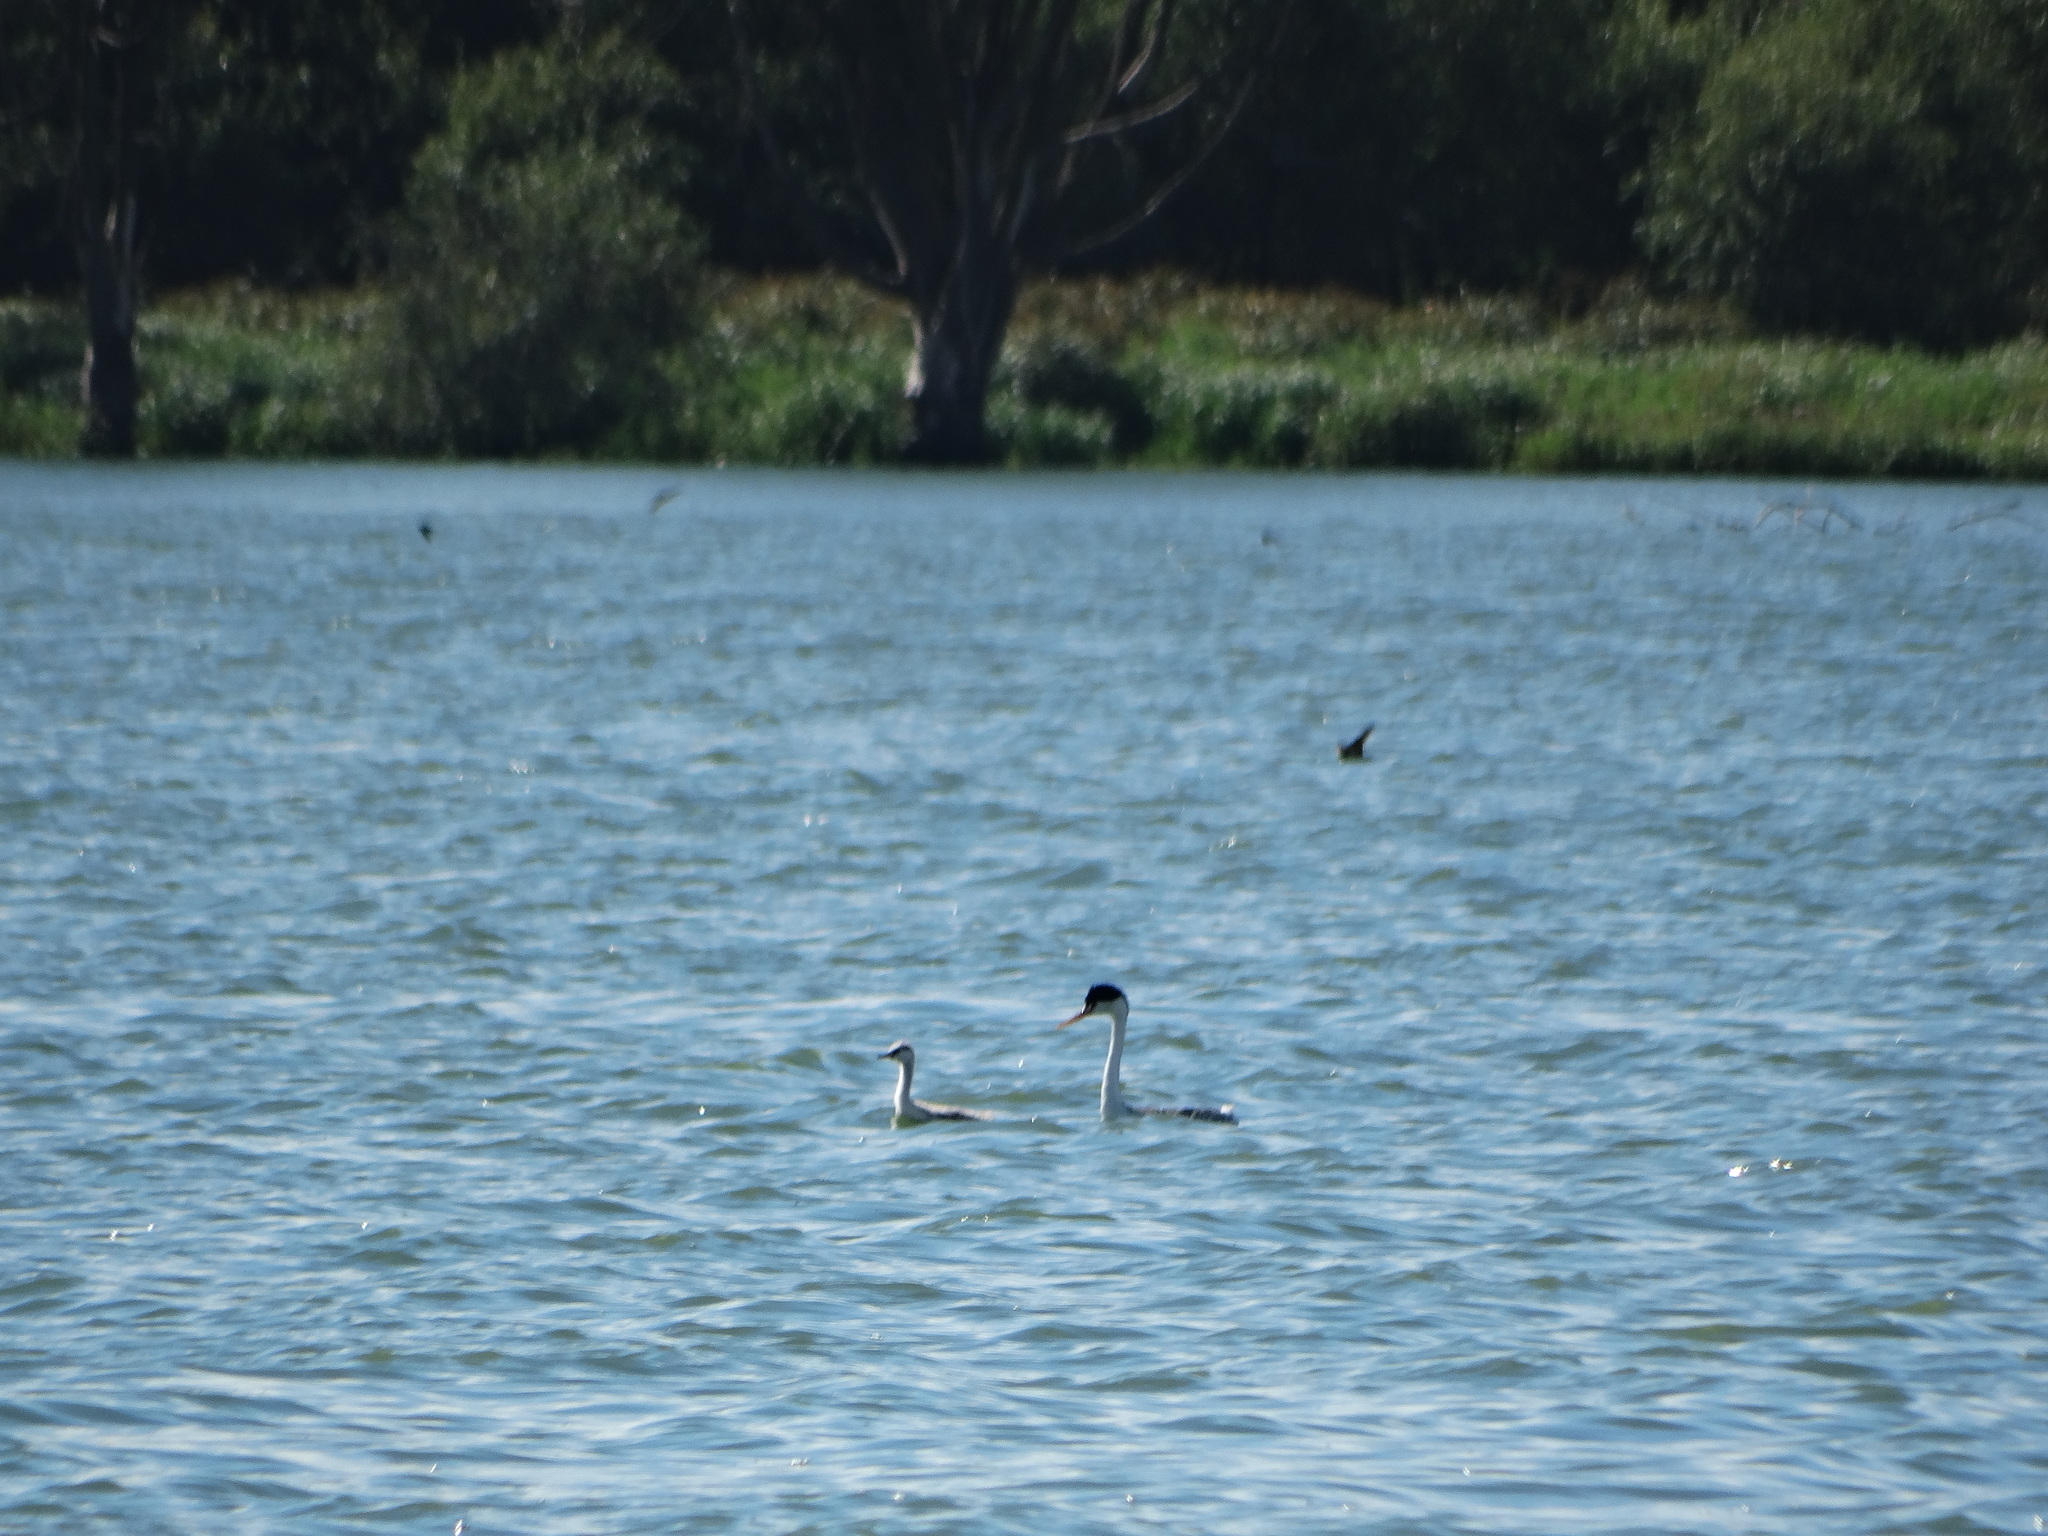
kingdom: Animalia
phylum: Chordata
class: Aves
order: Podicipediformes
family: Podicipedidae
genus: Aechmophorus
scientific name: Aechmophorus clarkii
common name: Clark's grebe
